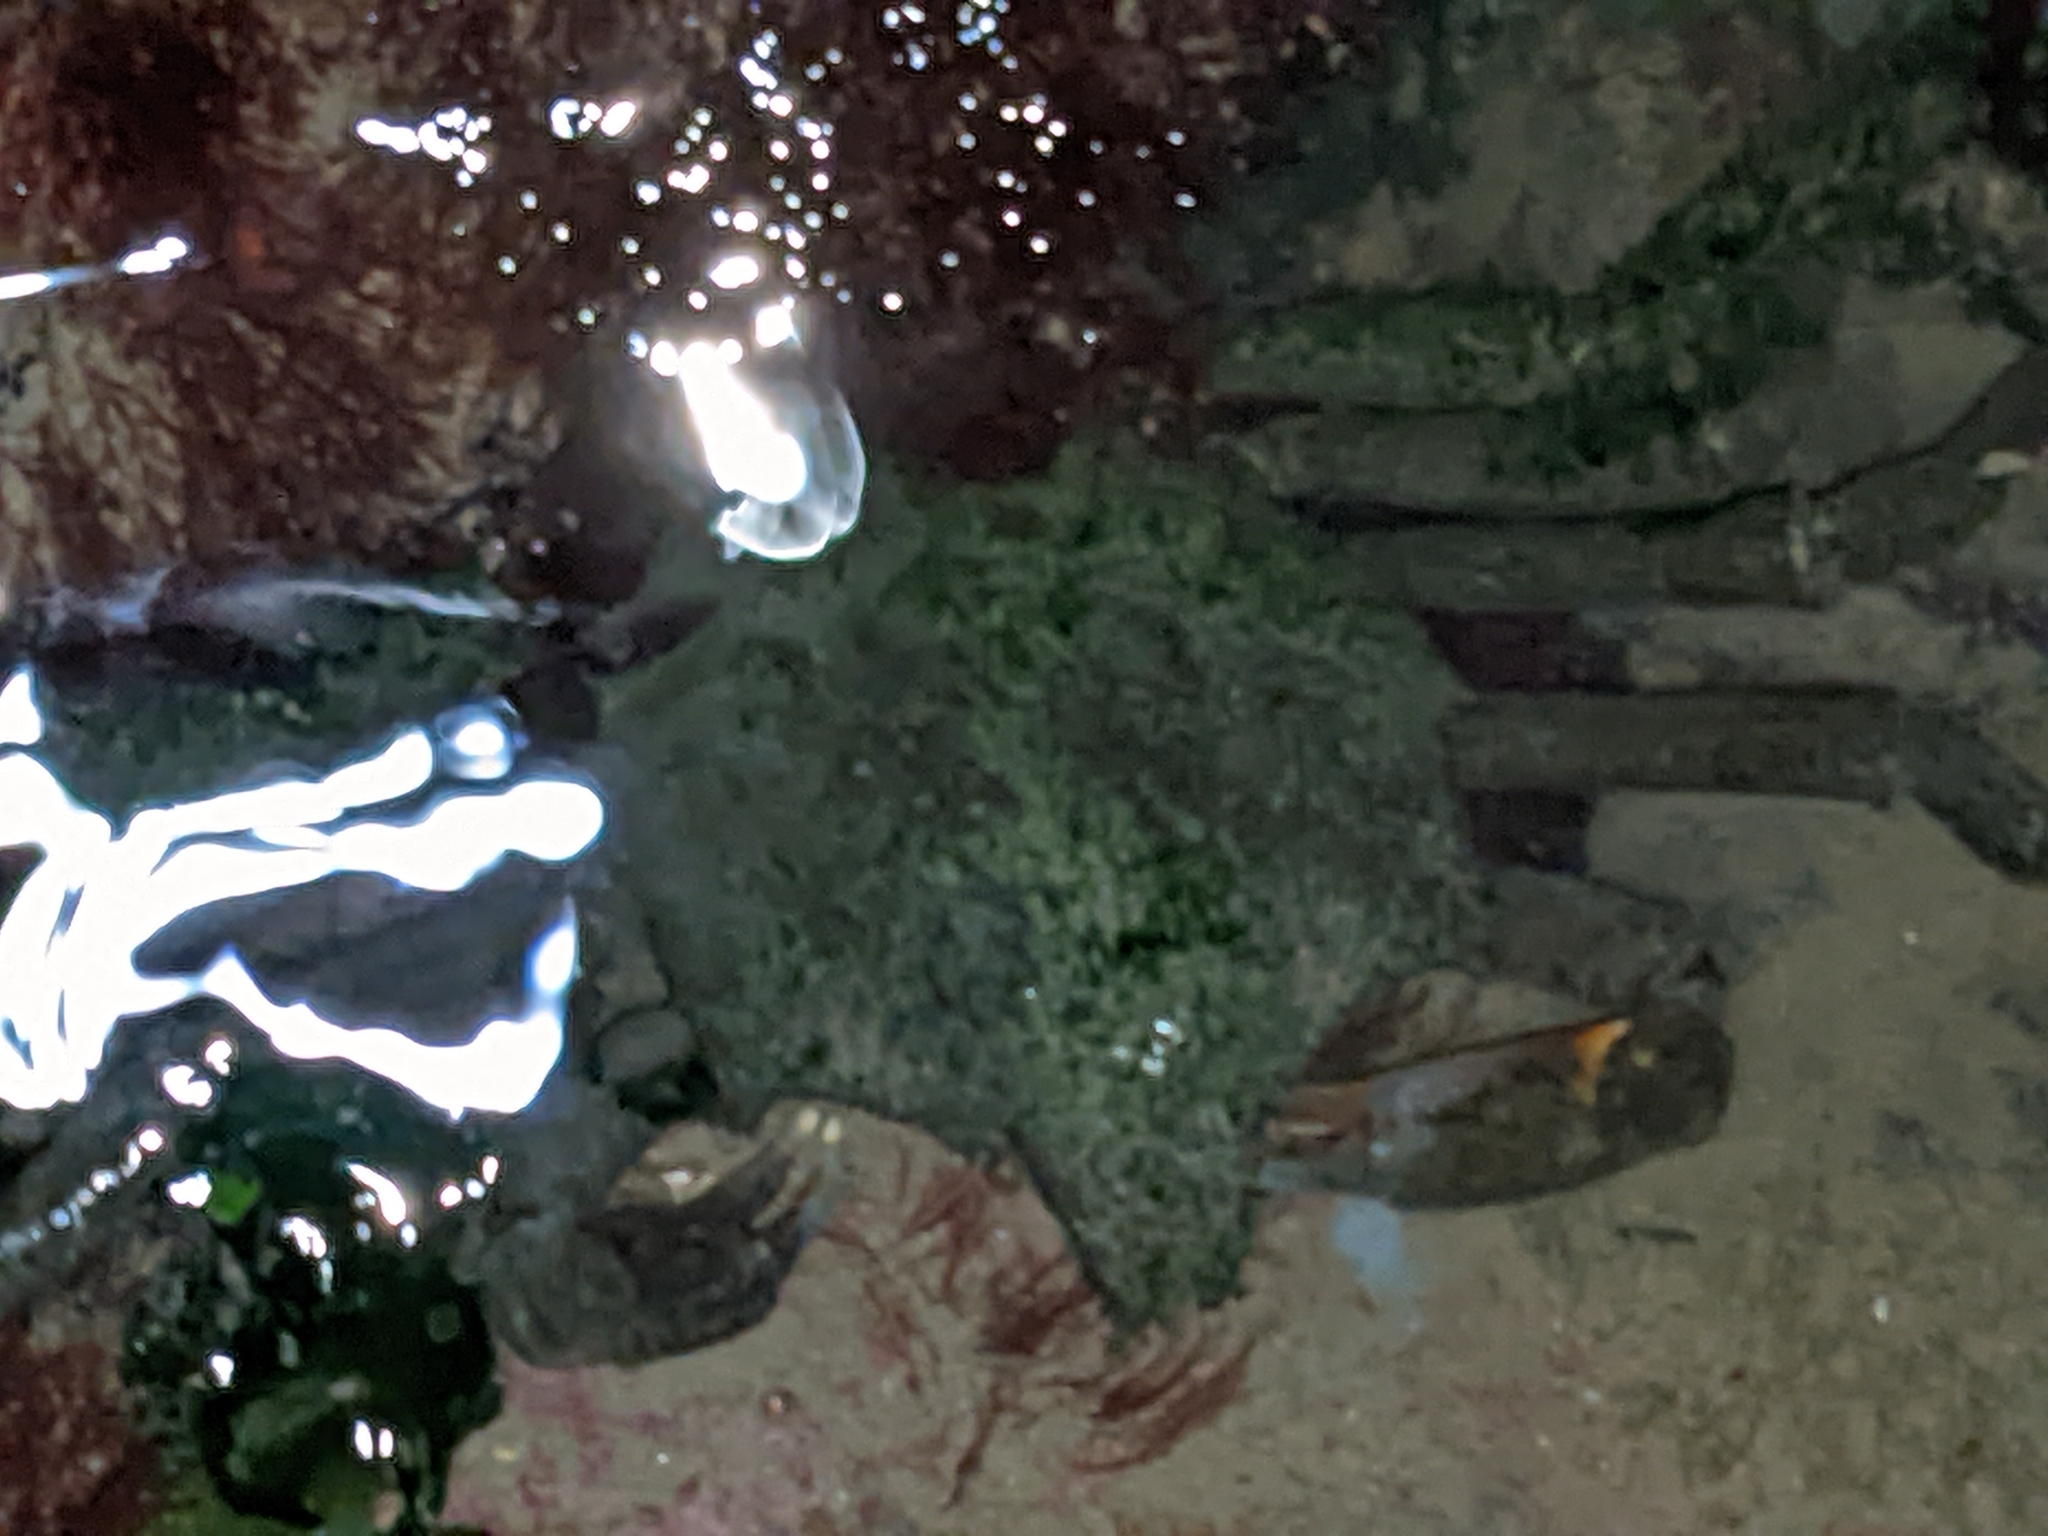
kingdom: Animalia
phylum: Arthropoda
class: Malacostraca
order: Decapoda
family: Epialtidae
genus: Pugettia
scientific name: Pugettia producta
